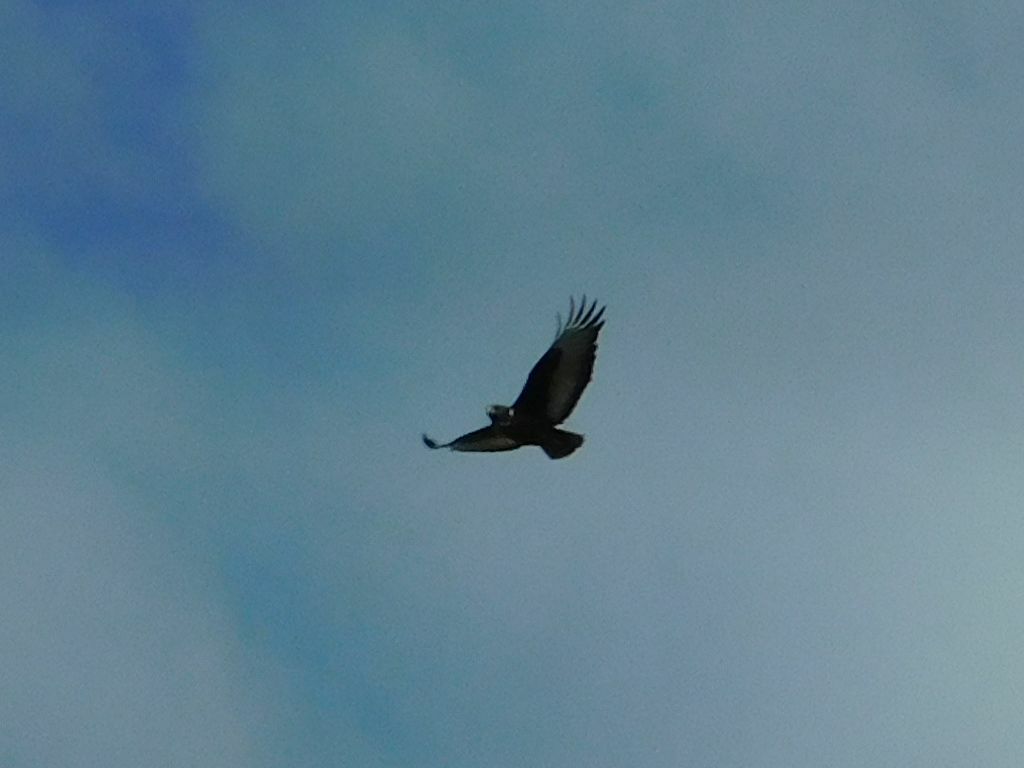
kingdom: Animalia
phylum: Chordata
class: Aves
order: Accipitriformes
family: Accipitridae
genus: Buteo
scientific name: Buteo rufofuscus
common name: Jackal buzzard
